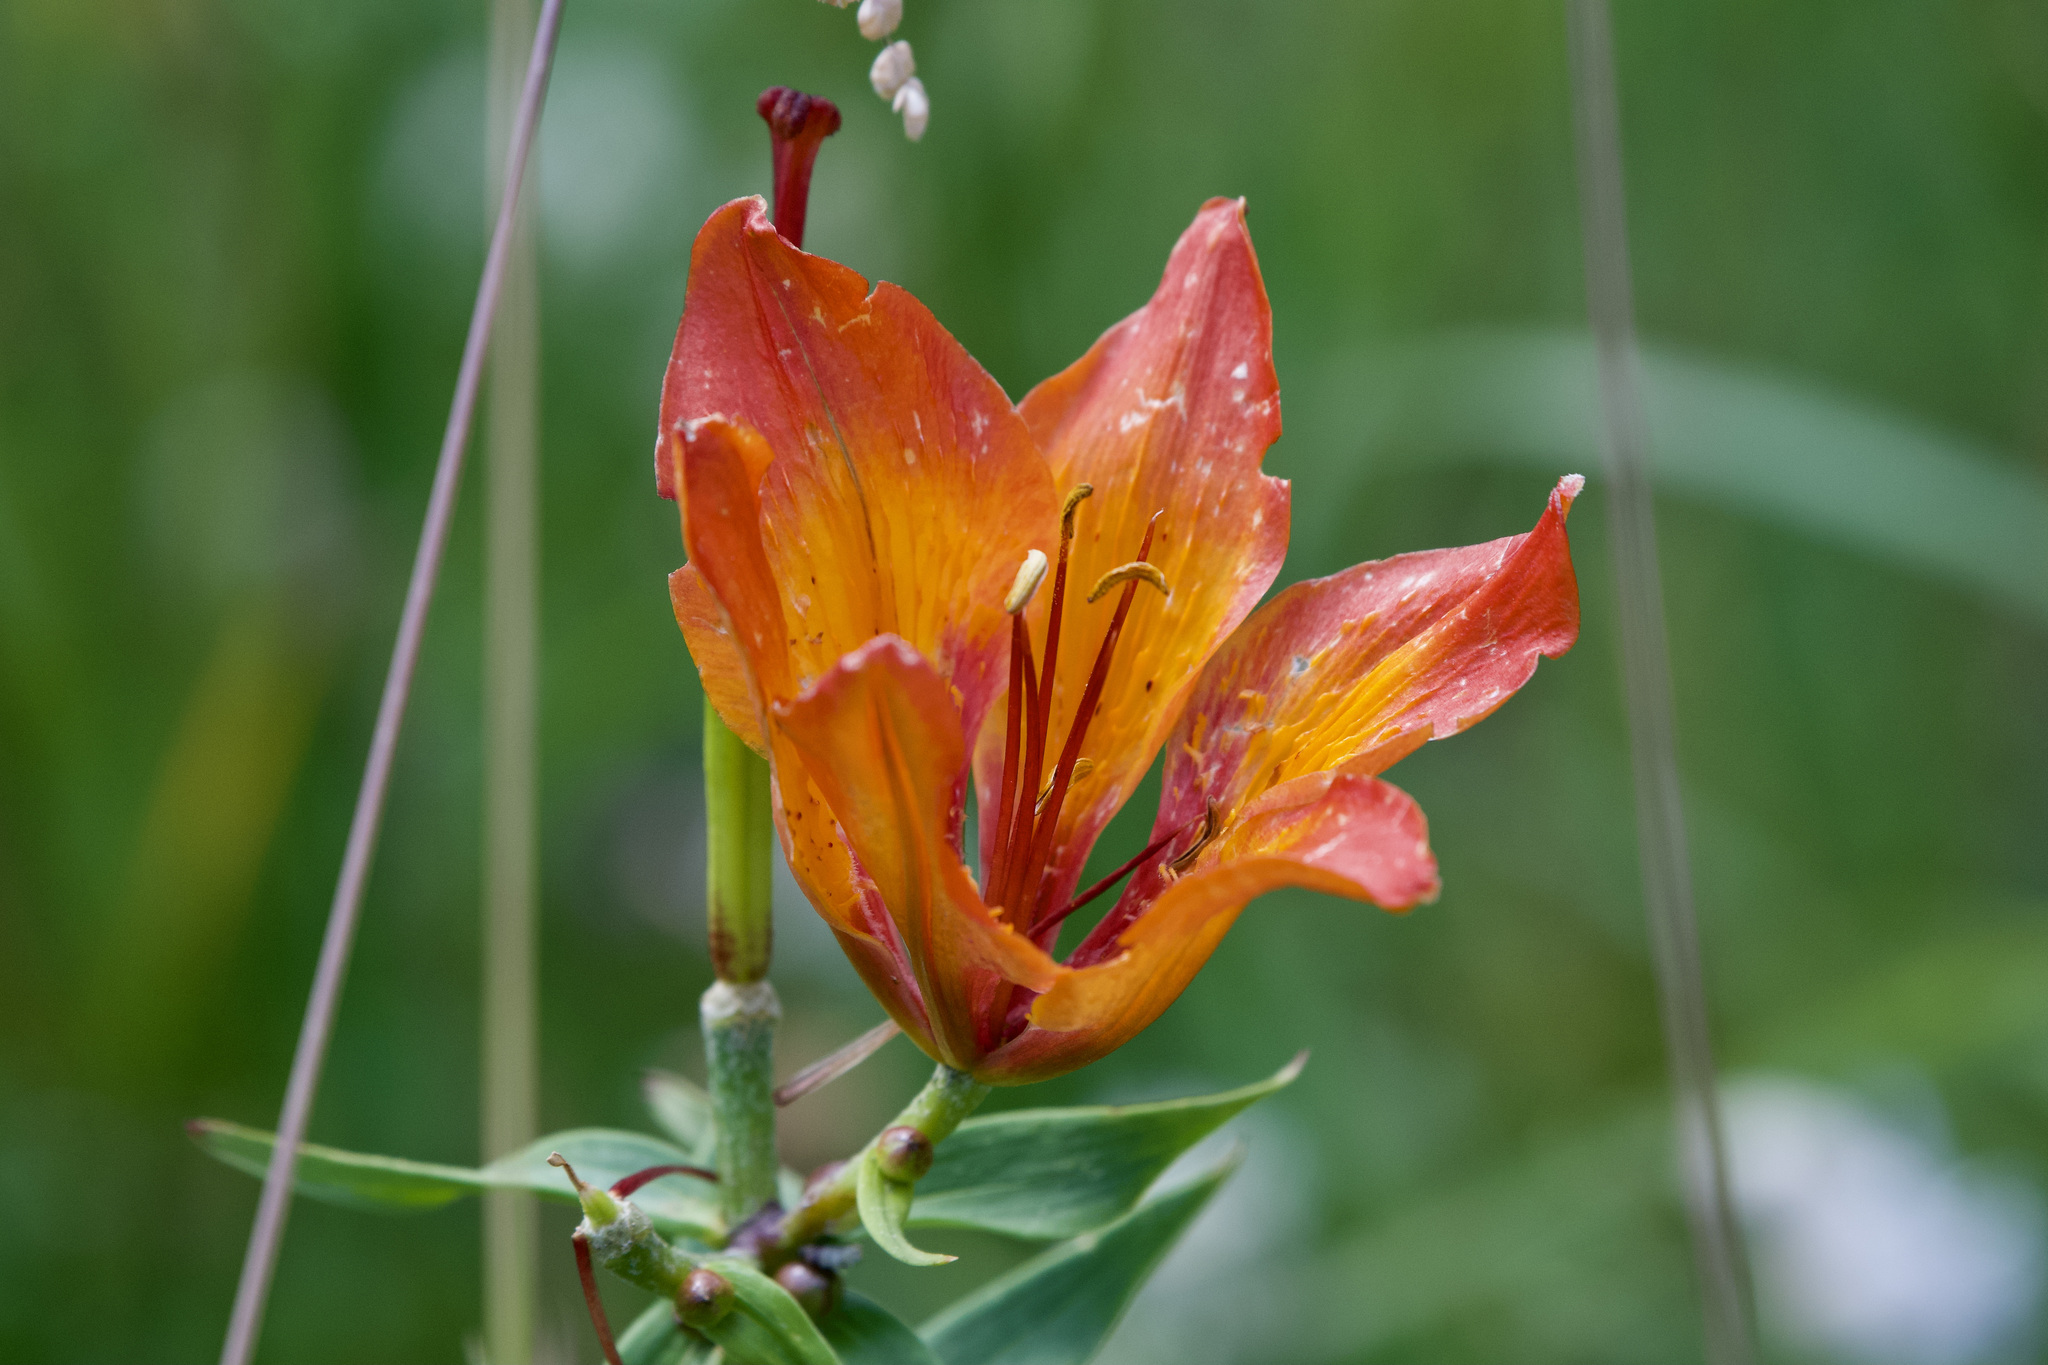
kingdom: Plantae
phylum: Tracheophyta
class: Liliopsida
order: Liliales
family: Liliaceae
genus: Lilium
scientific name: Lilium bulbiferum
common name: Orange lily
